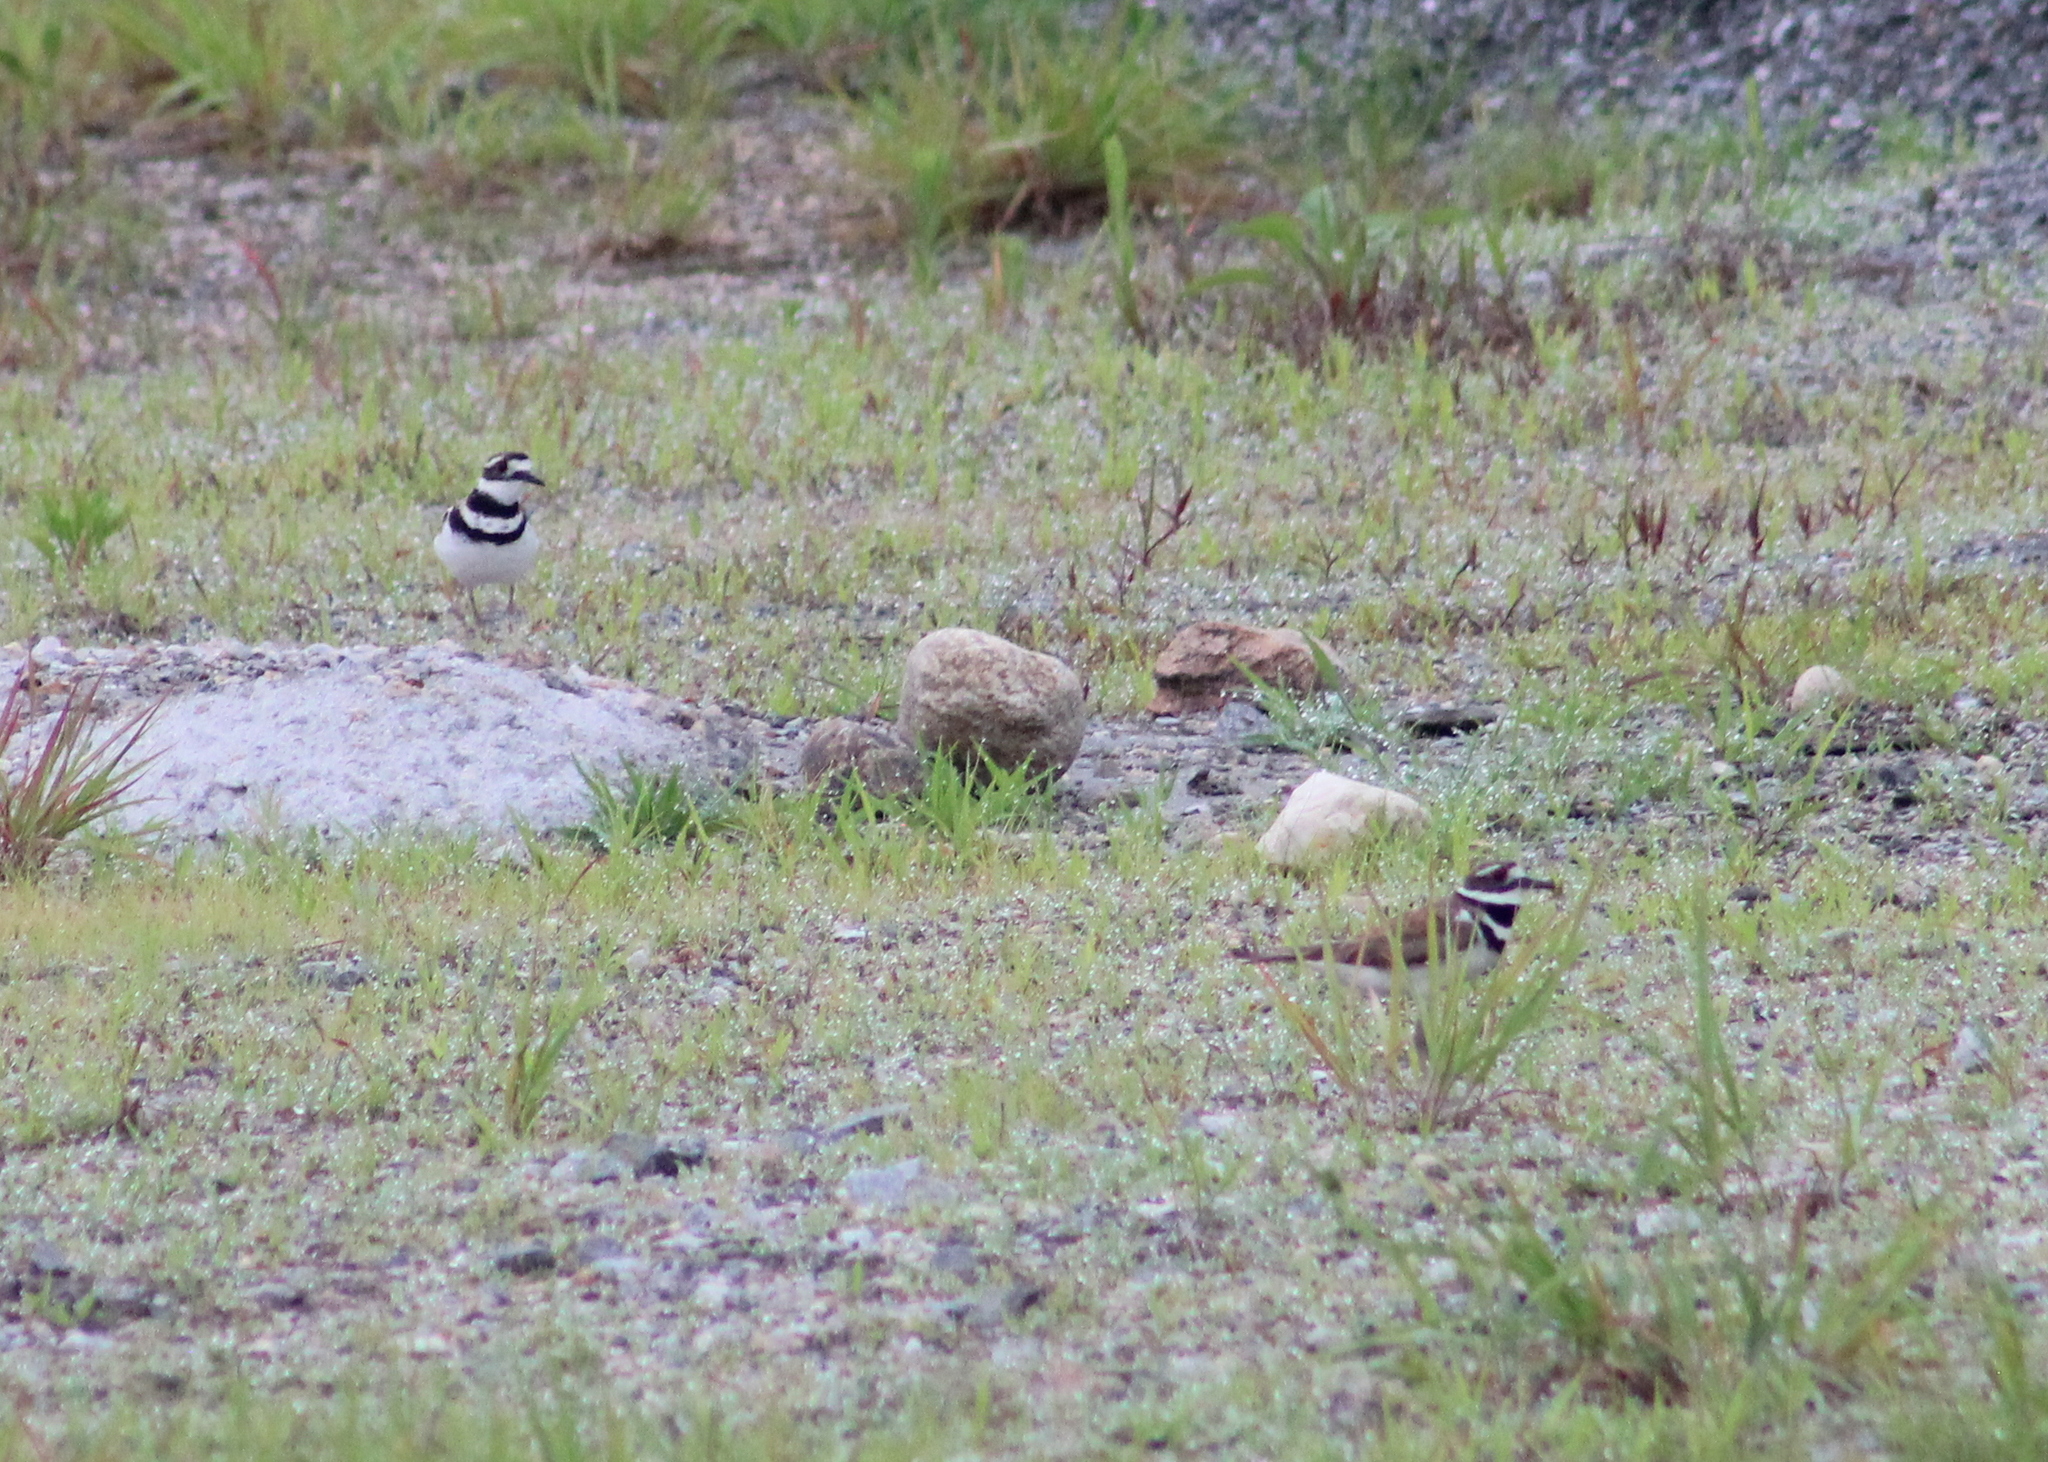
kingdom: Animalia
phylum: Chordata
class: Aves
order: Charadriiformes
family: Charadriidae
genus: Charadrius
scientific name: Charadrius vociferus
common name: Killdeer
